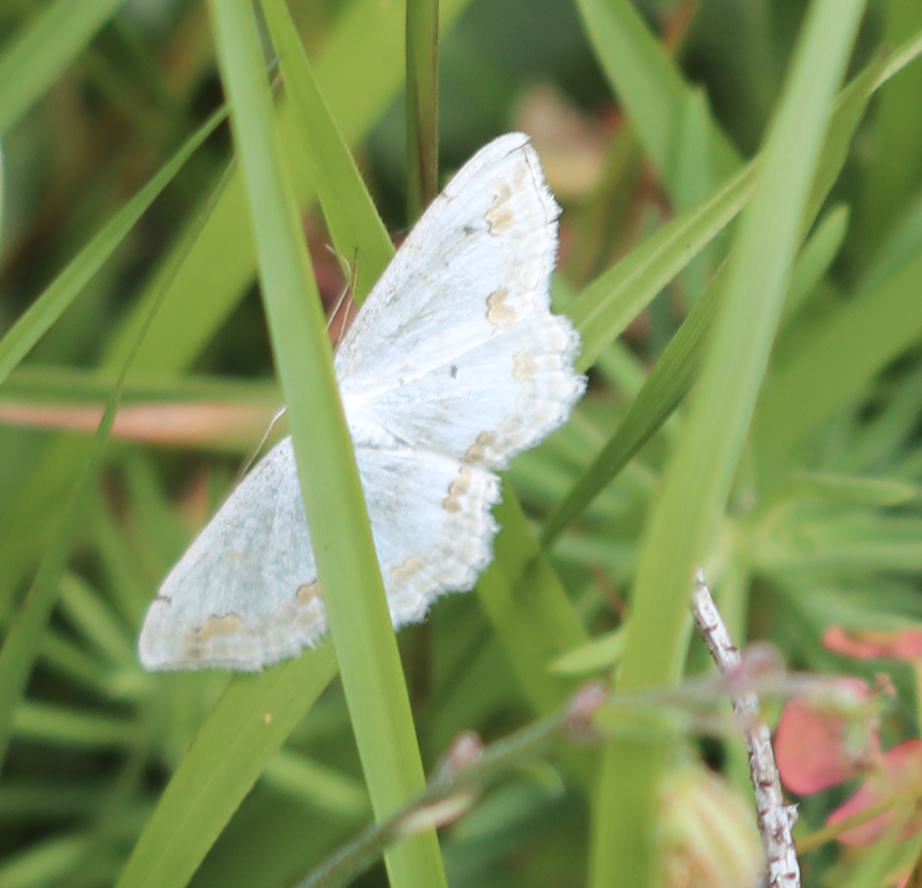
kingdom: Animalia
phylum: Arthropoda
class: Insecta
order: Lepidoptera
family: Geometridae
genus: Scopula
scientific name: Scopula ornata
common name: Lace border
